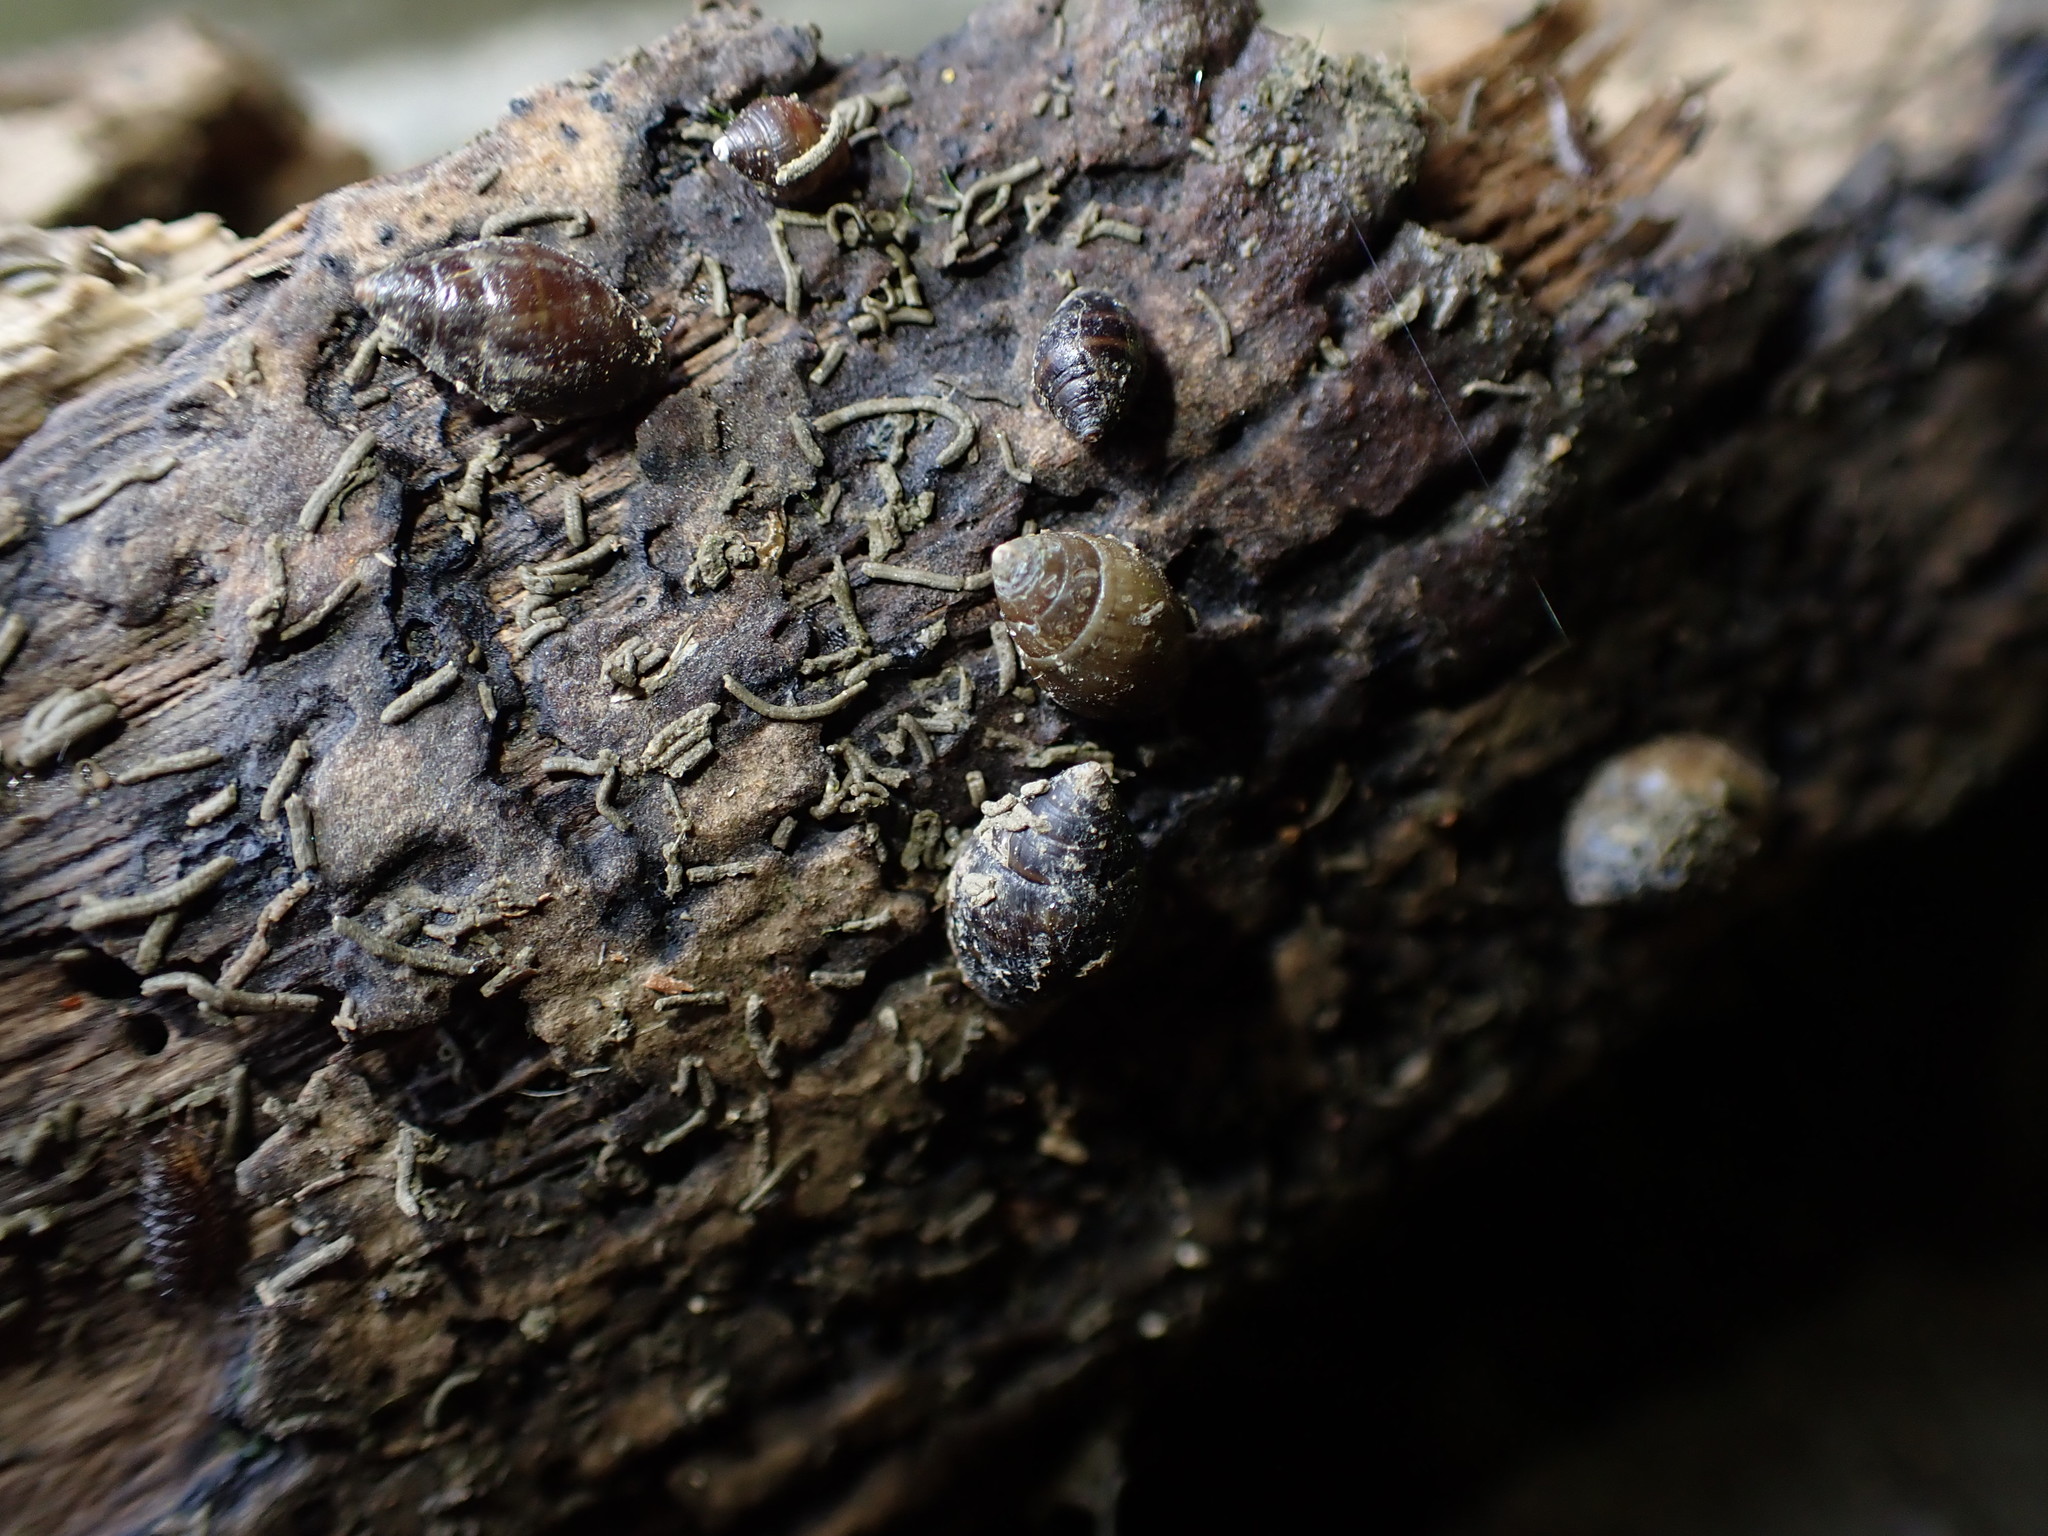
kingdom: Animalia
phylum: Mollusca
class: Gastropoda
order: Ellobiida
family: Ellobiidae
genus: Pleuroloba
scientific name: Pleuroloba costellaris
